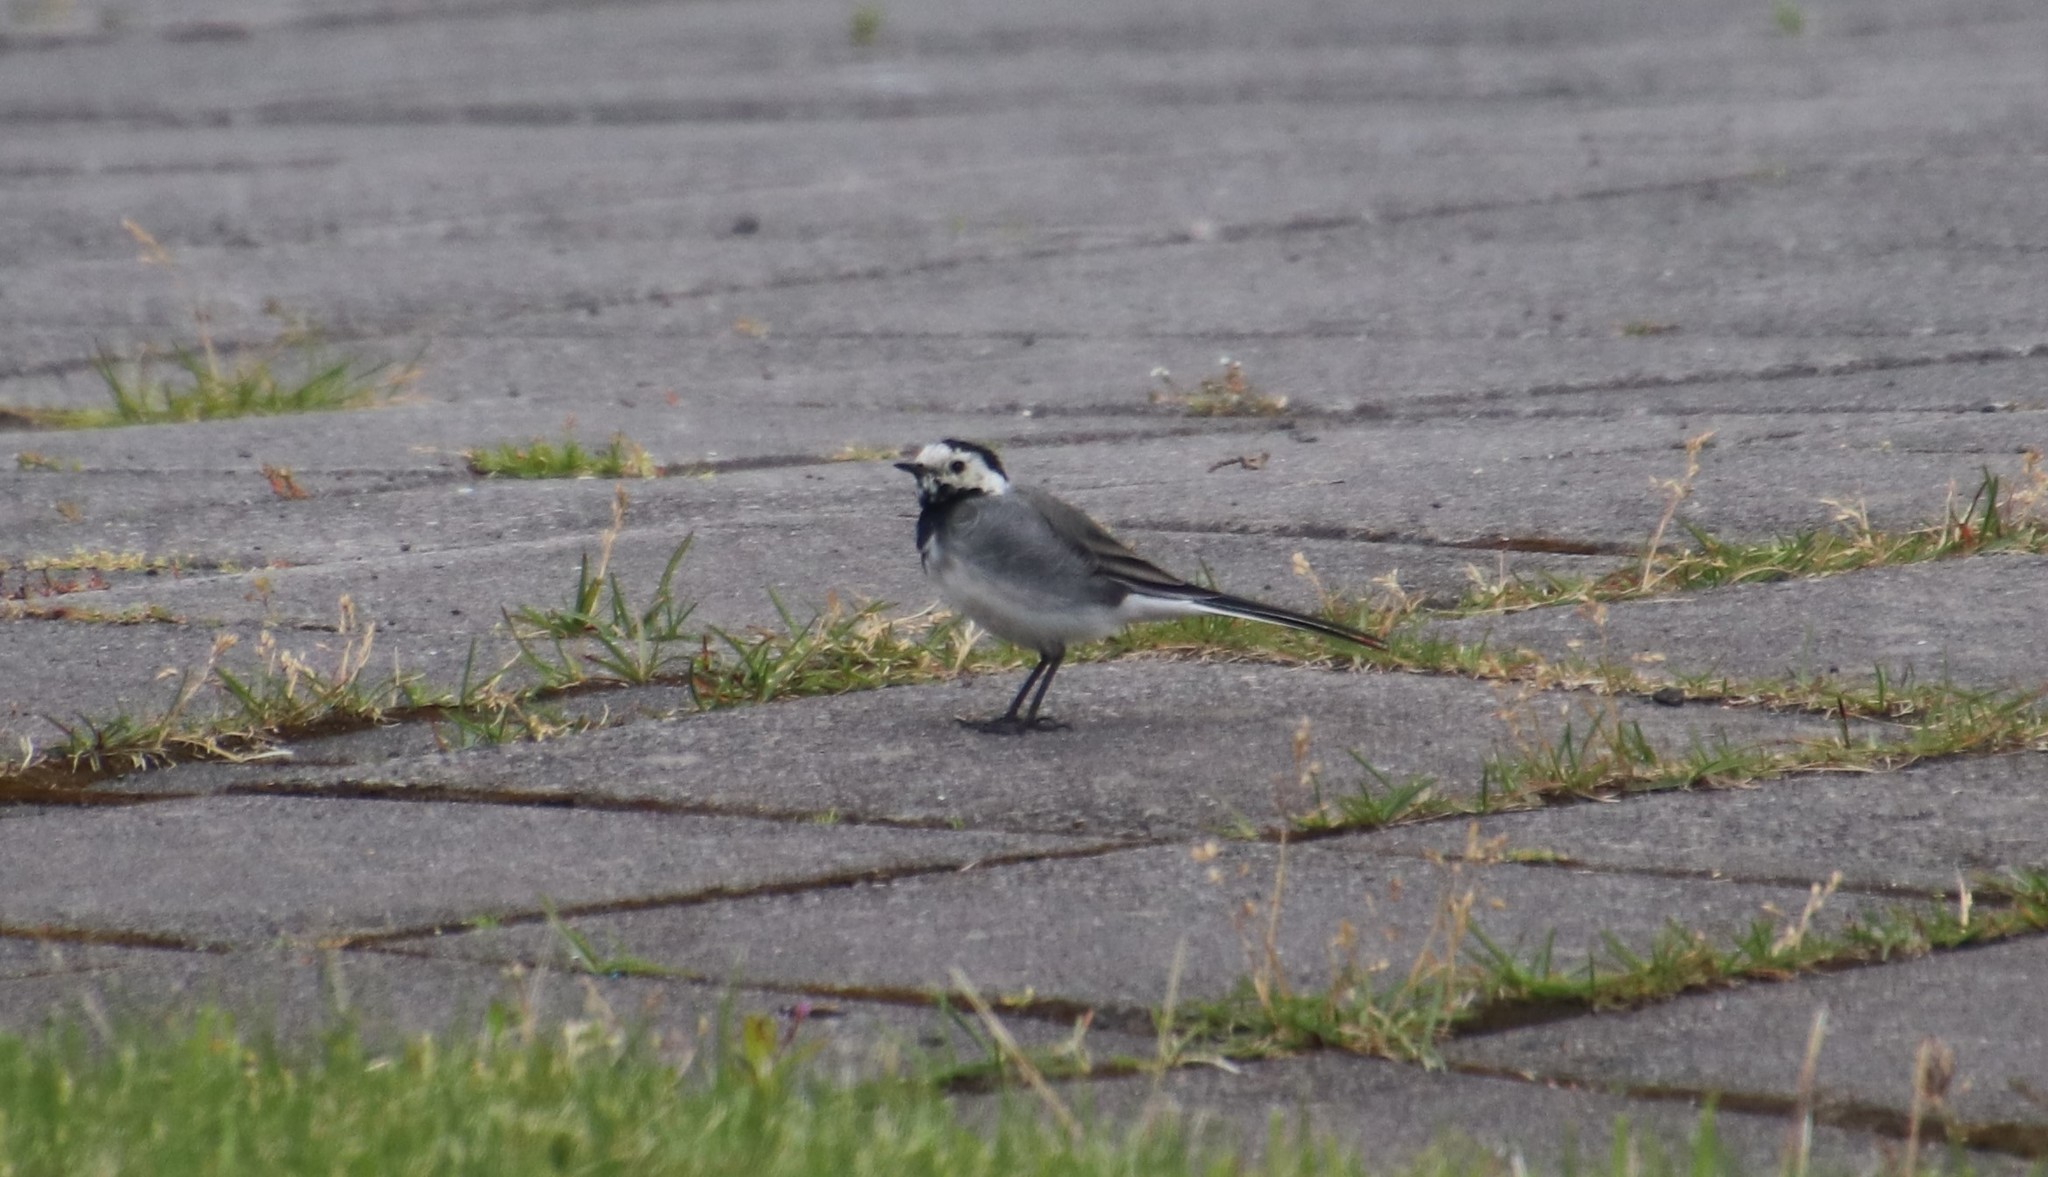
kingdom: Animalia
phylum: Chordata
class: Aves
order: Passeriformes
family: Motacillidae
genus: Motacilla
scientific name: Motacilla alba
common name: White wagtail
